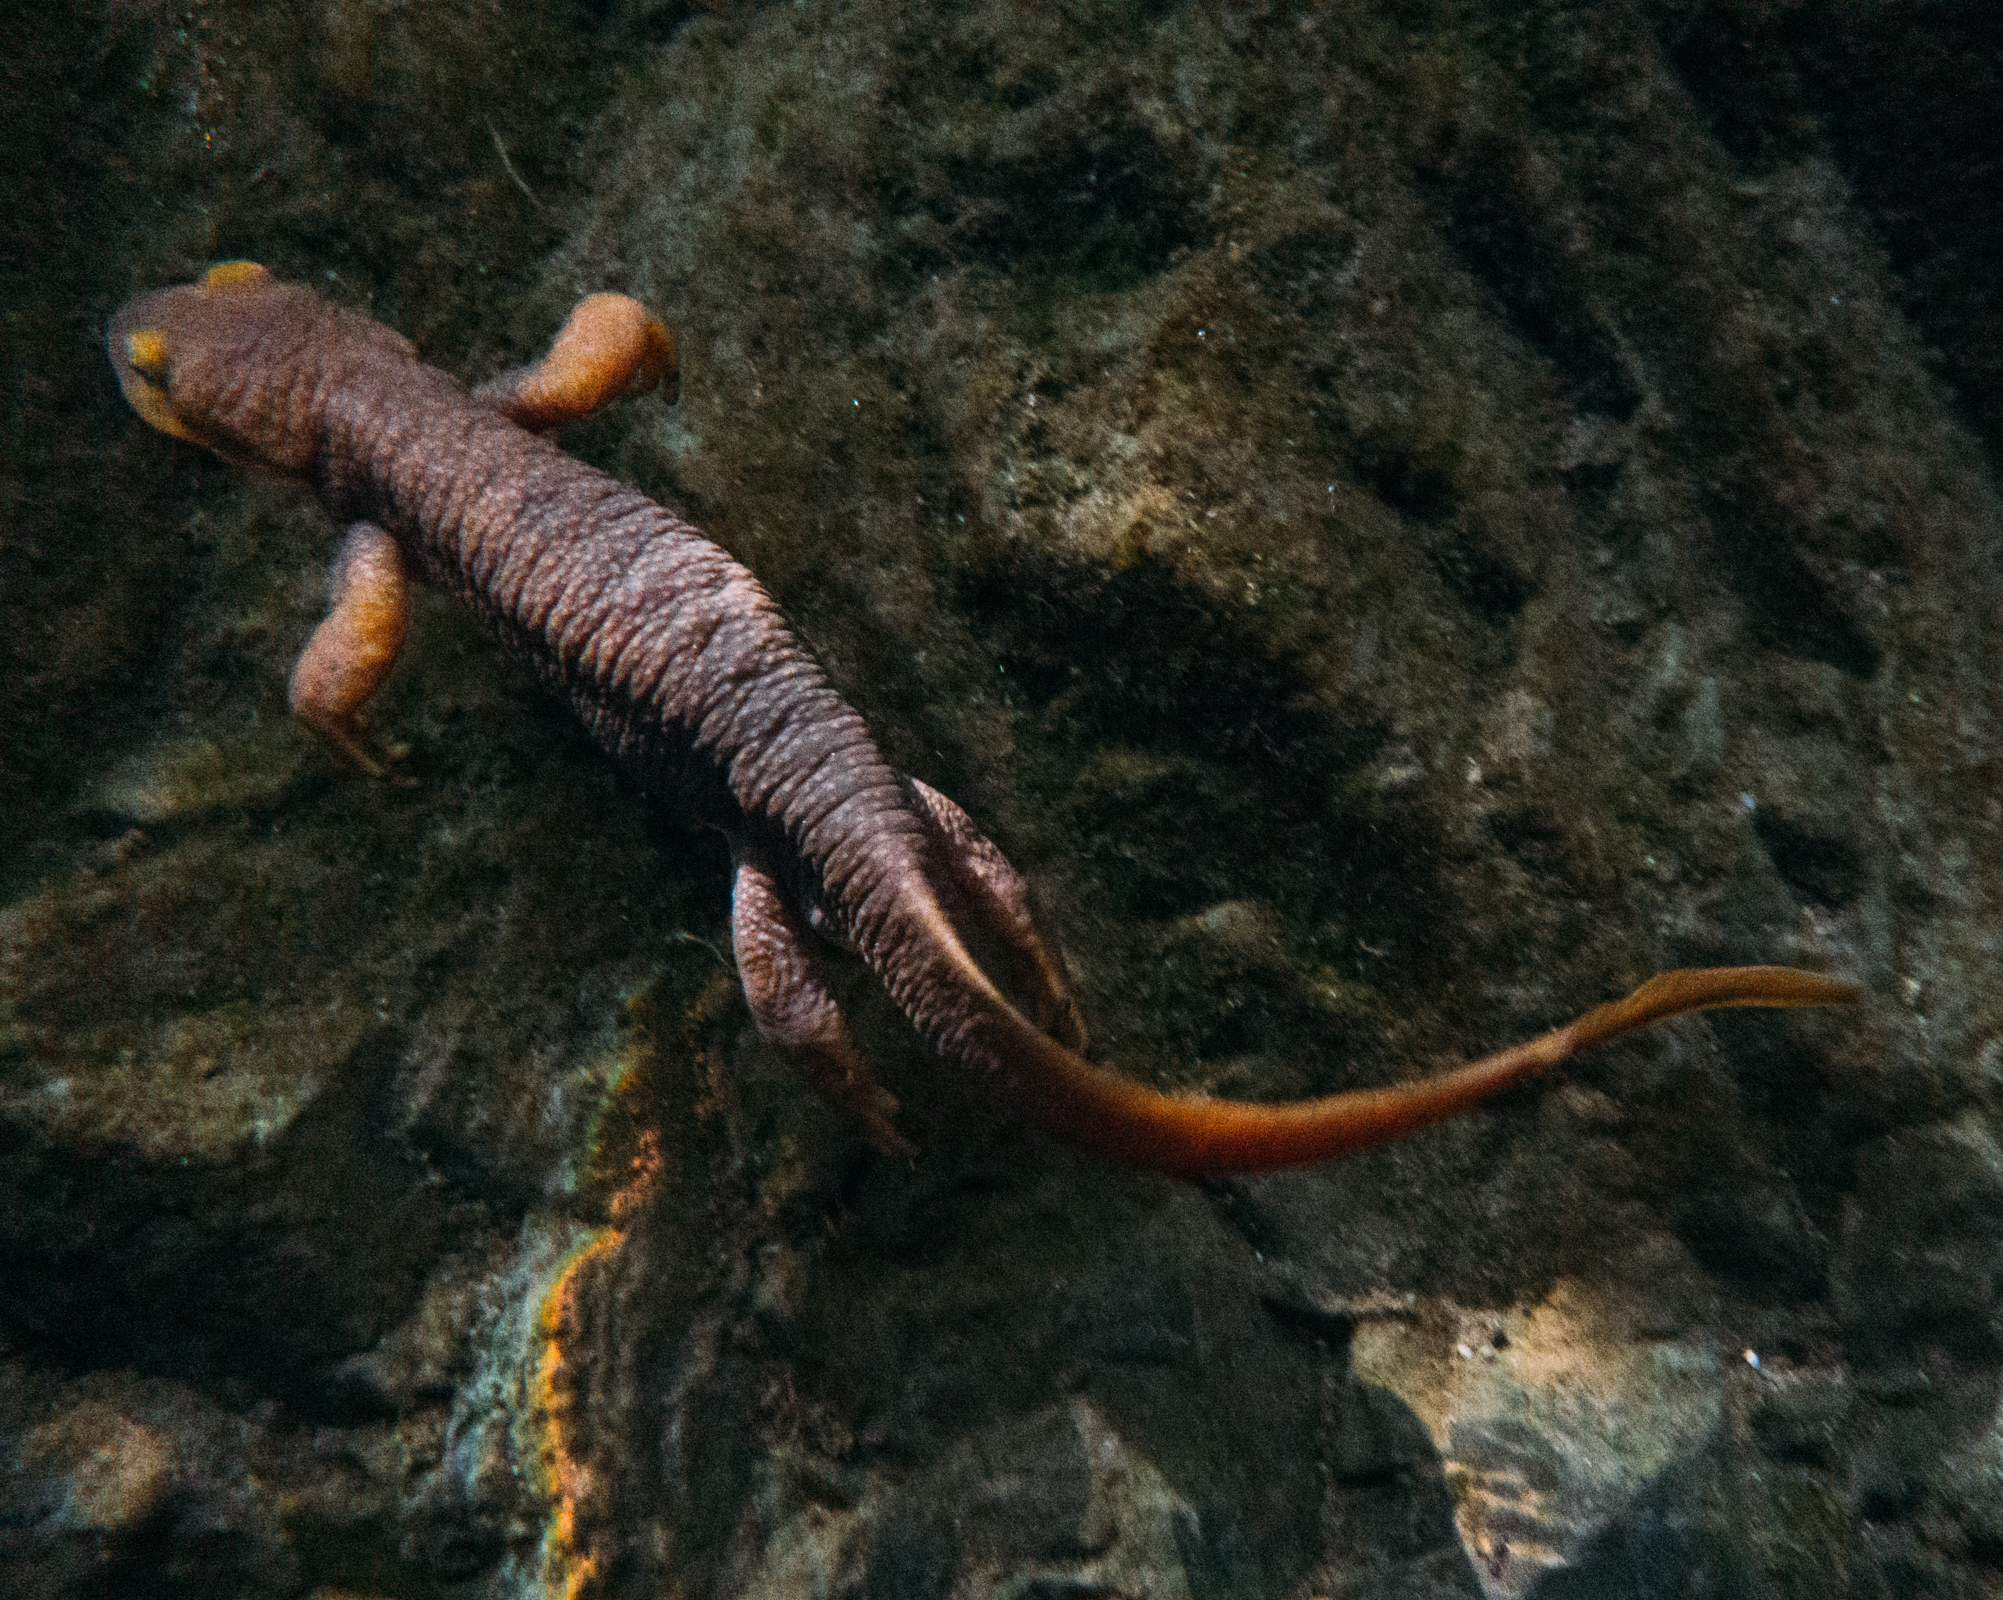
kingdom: Animalia
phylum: Chordata
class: Amphibia
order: Caudata
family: Salamandridae
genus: Taricha
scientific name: Taricha torosa
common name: California newt
